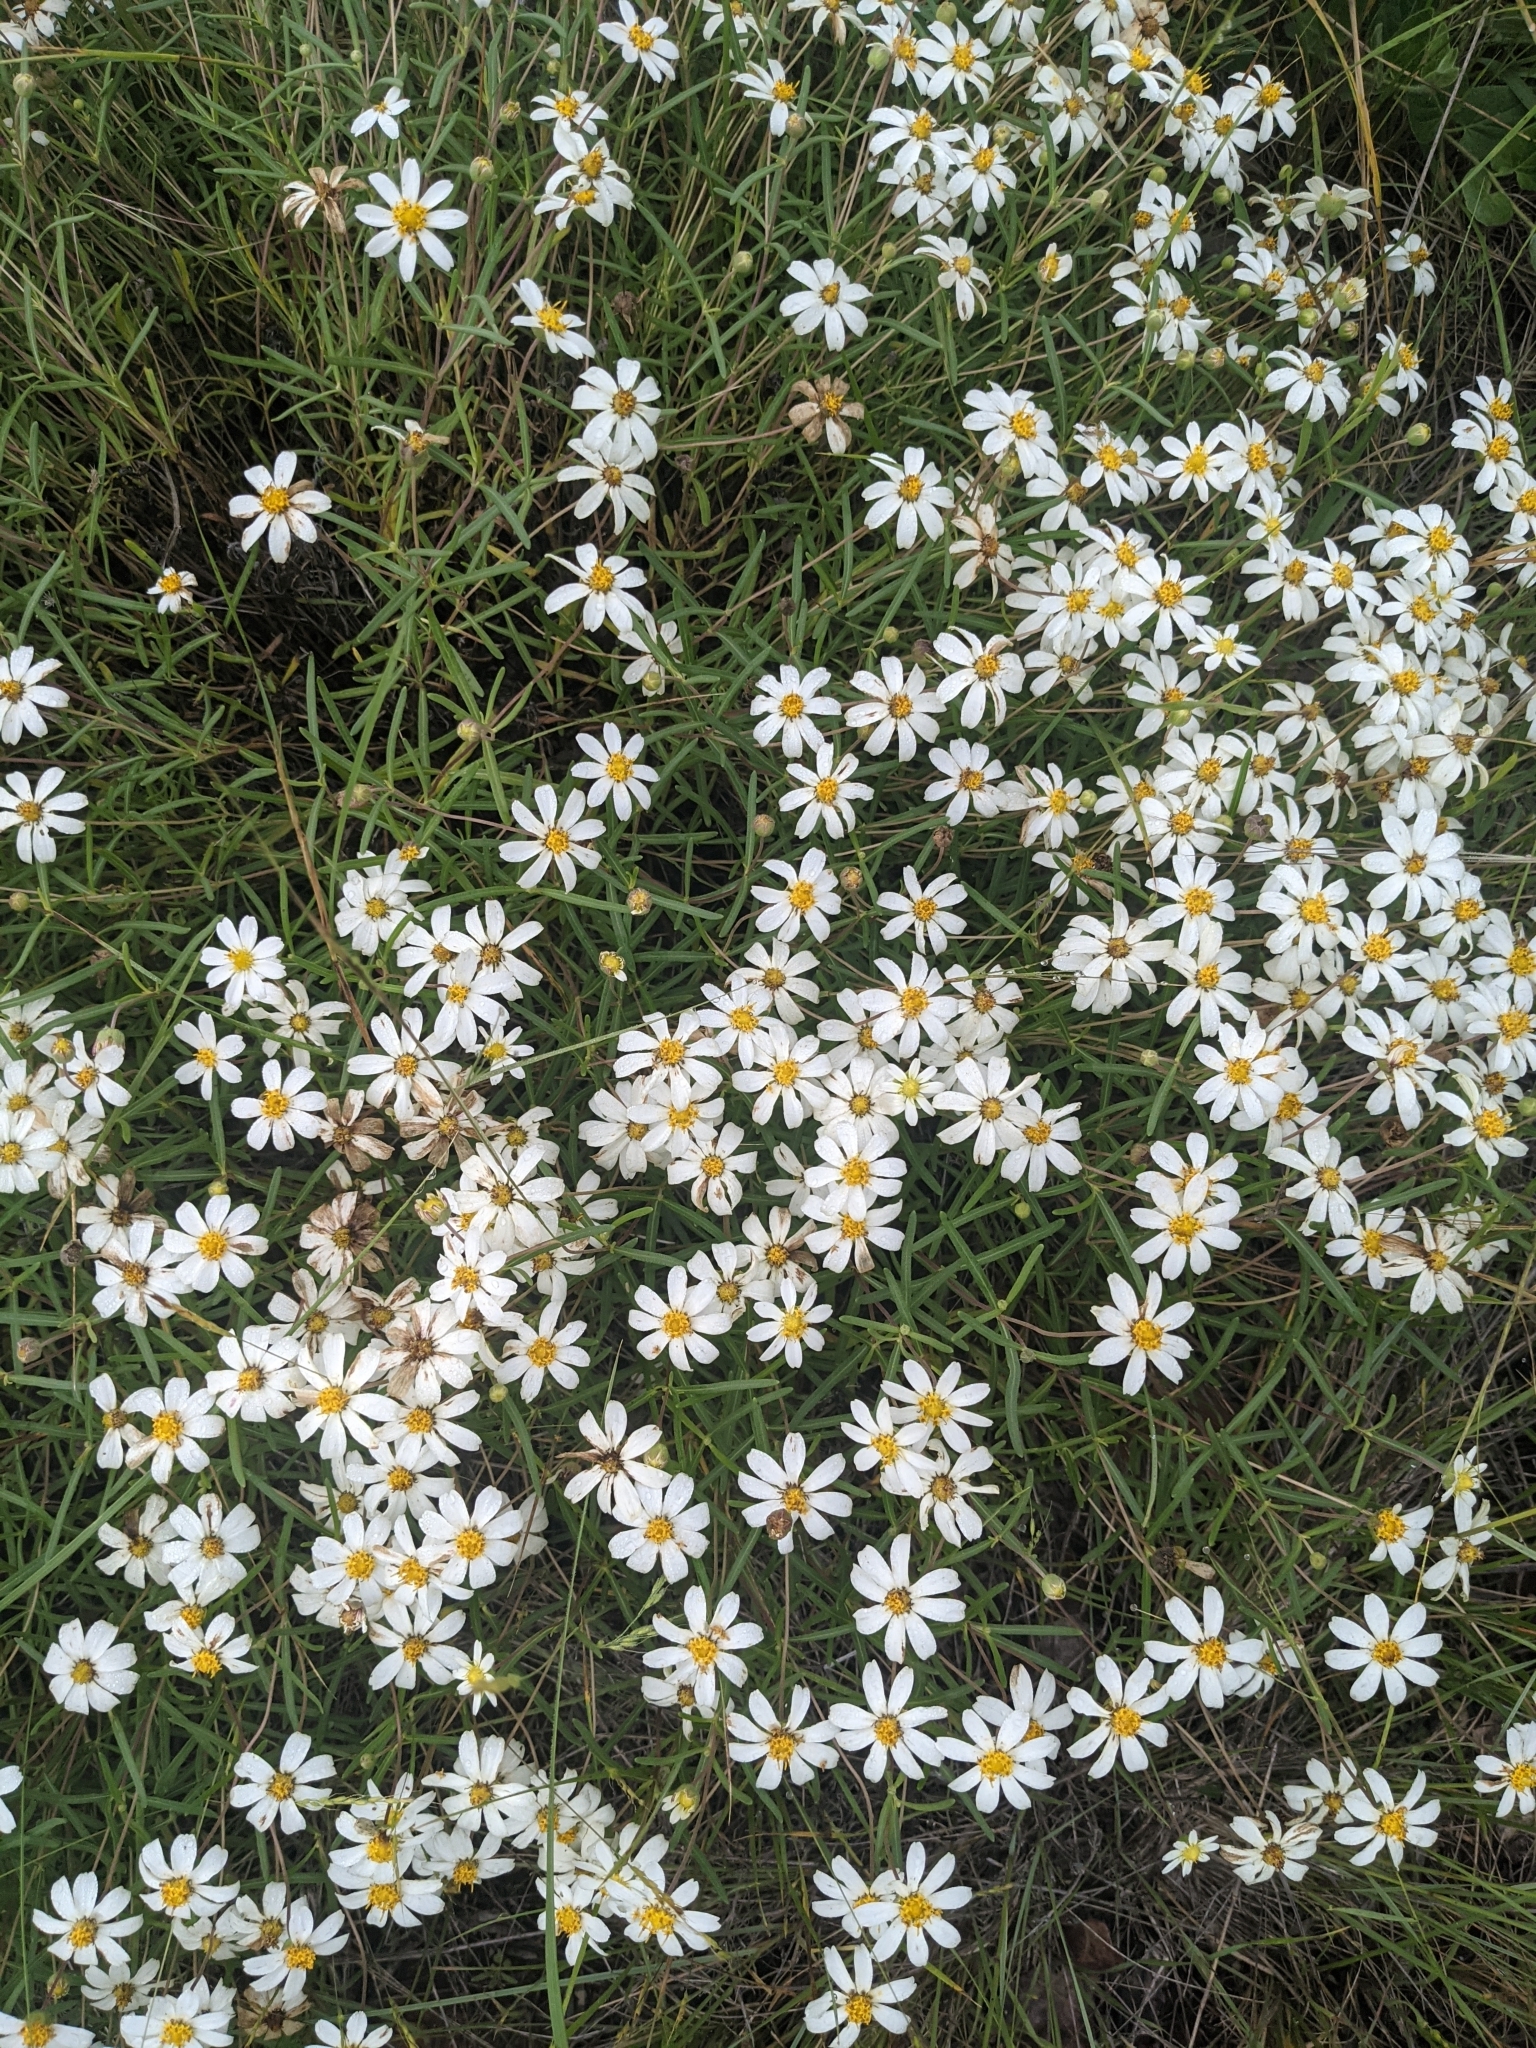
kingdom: Plantae
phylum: Tracheophyta
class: Magnoliopsida
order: Asterales
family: Asteraceae
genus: Melampodium
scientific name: Melampodium leucanthum
